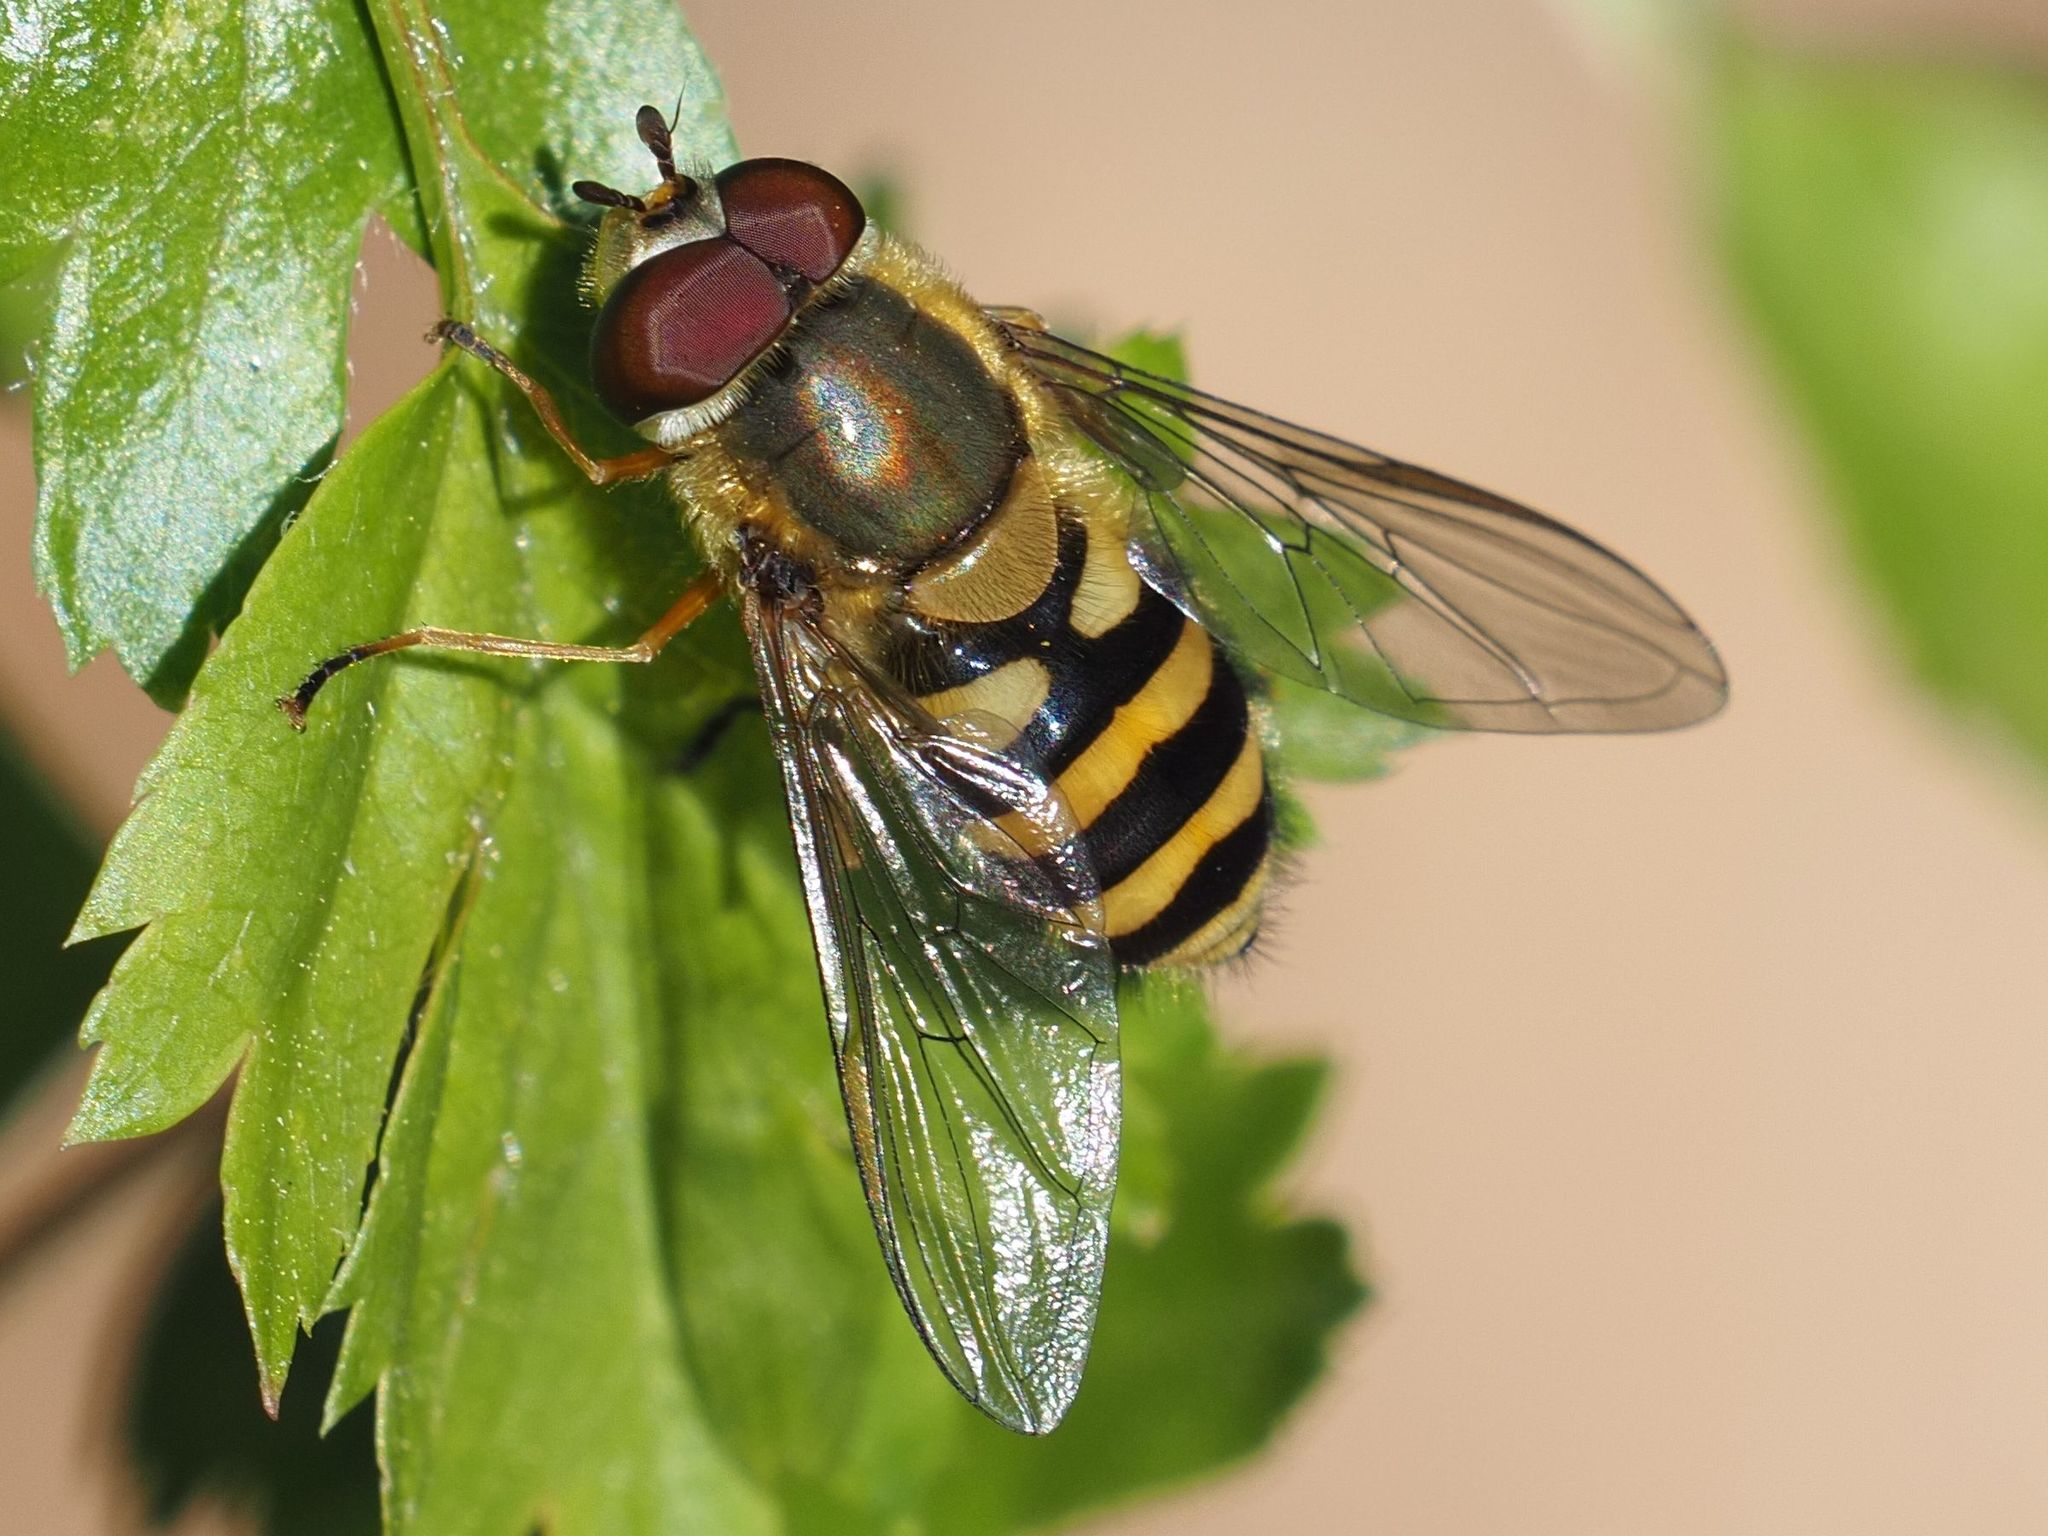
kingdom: Animalia
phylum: Arthropoda
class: Insecta
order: Diptera
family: Syrphidae
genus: Syrphus
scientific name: Syrphus
